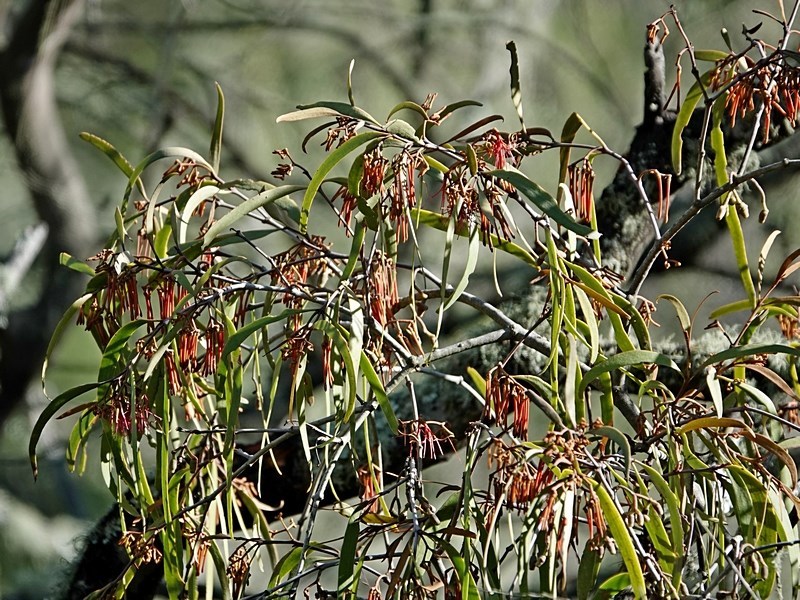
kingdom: Plantae
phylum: Tracheophyta
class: Magnoliopsida
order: Santalales
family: Loranthaceae
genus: Amyema
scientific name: Amyema pendula
